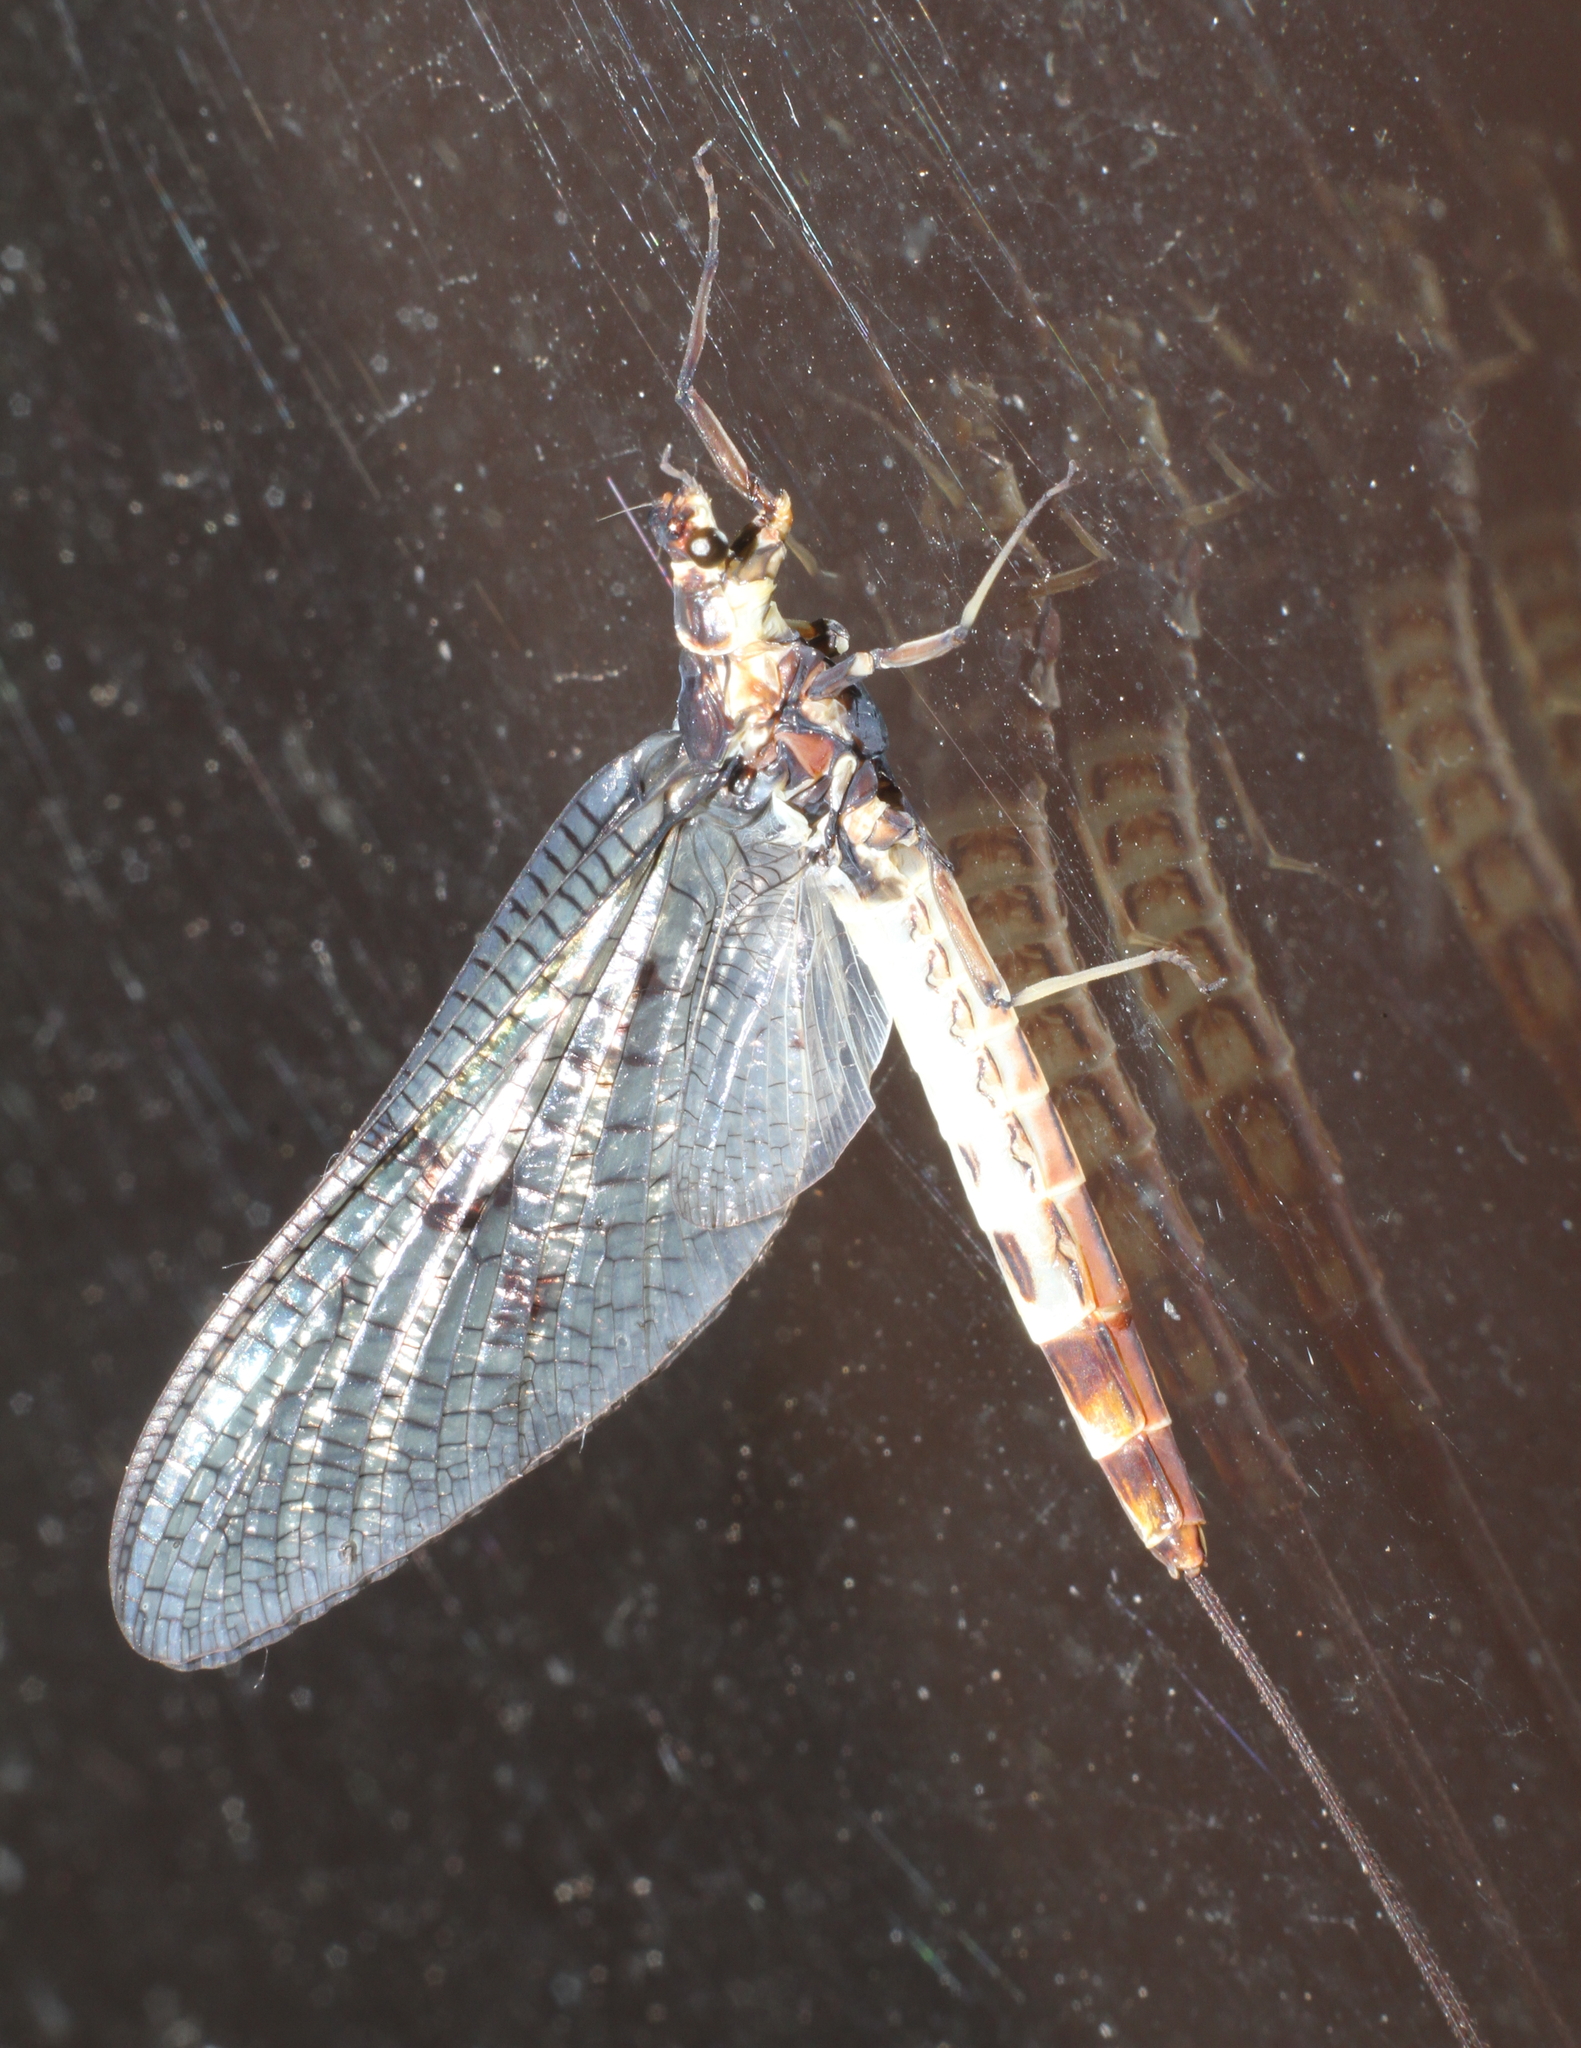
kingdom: Animalia
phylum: Arthropoda
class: Insecta
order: Ephemeroptera
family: Ephemeridae
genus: Ephemera
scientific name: Ephemera danica
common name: Green dun
